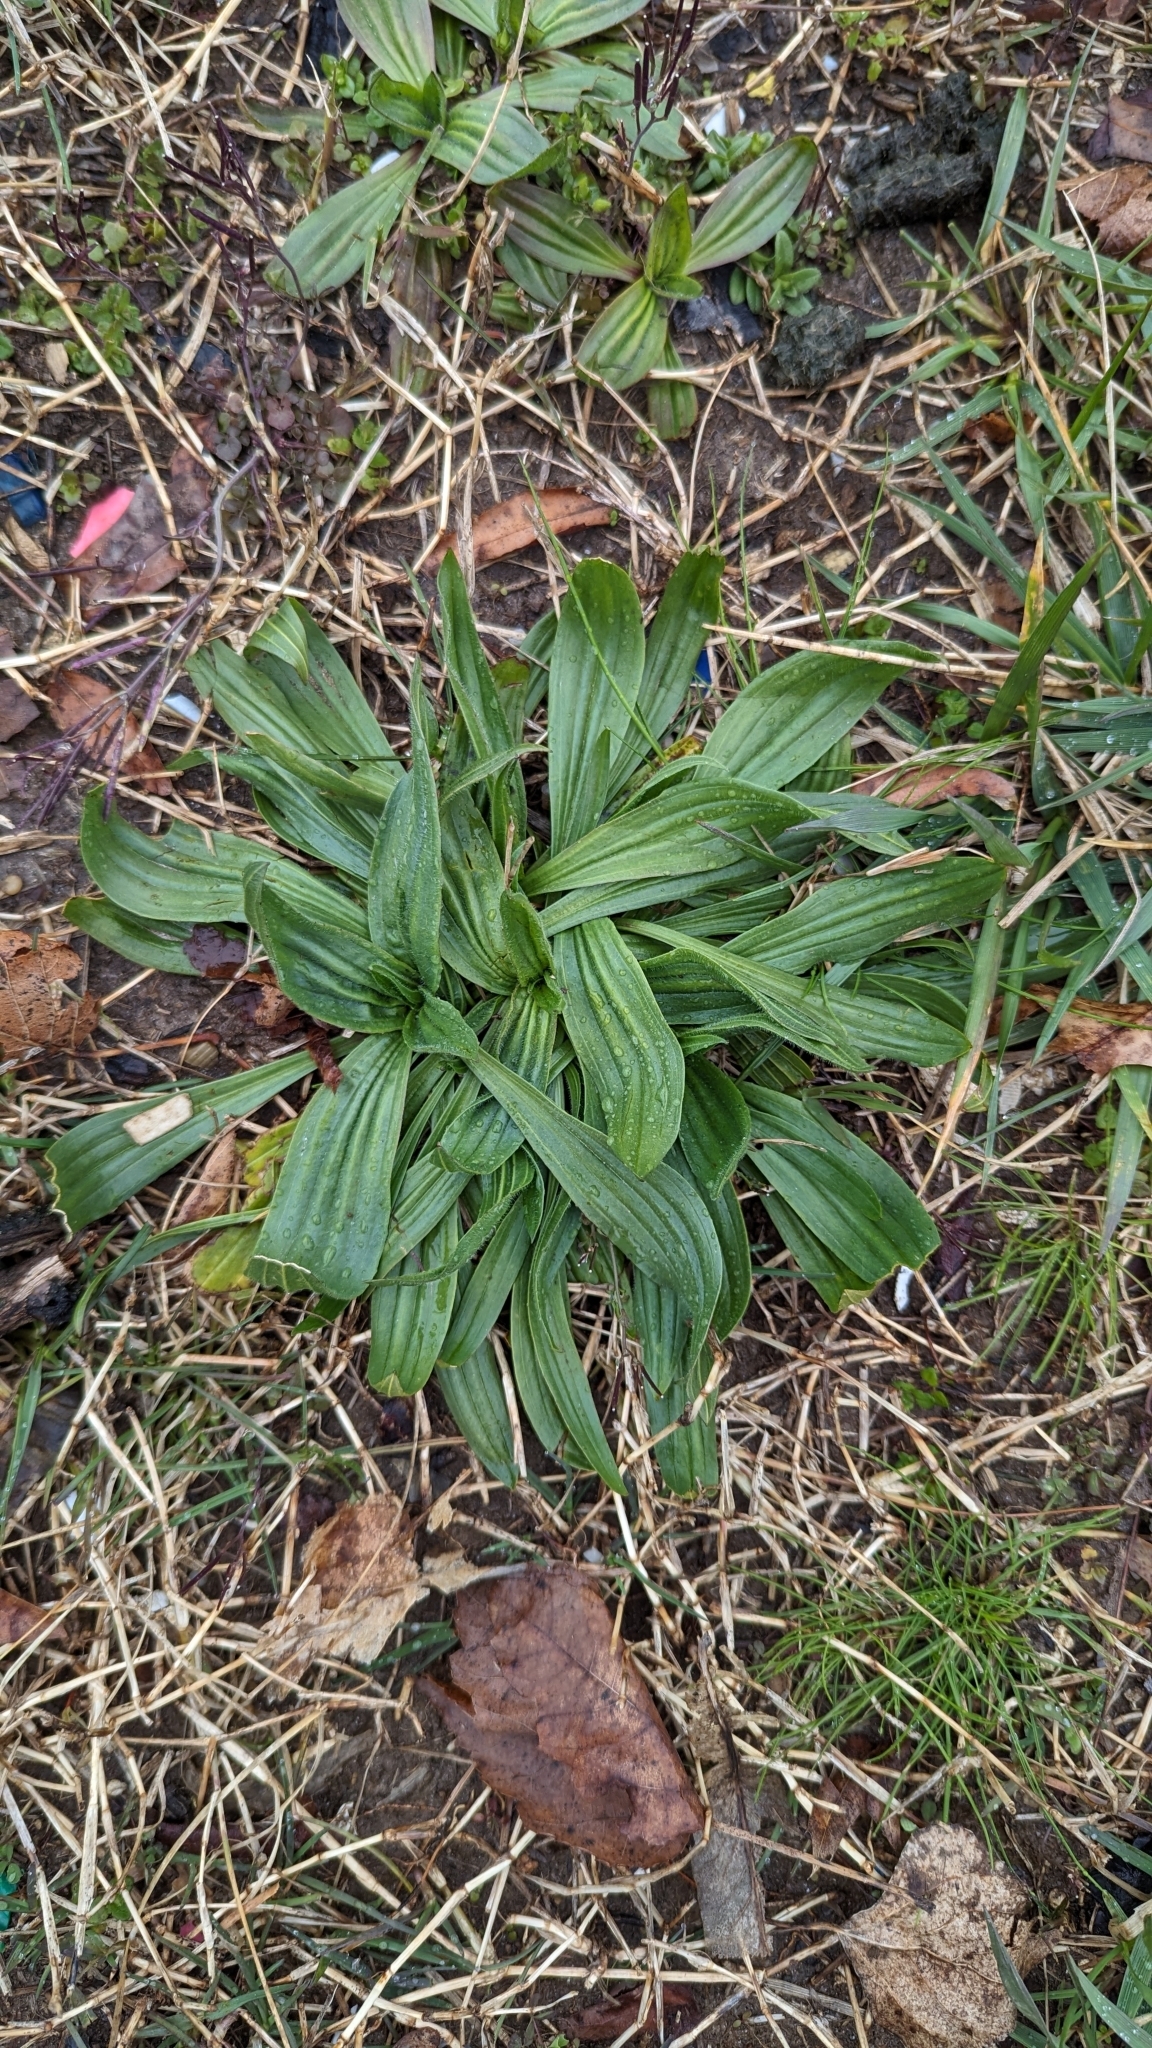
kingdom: Plantae
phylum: Tracheophyta
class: Magnoliopsida
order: Lamiales
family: Plantaginaceae
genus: Plantago
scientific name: Plantago lanceolata
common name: Ribwort plantain
